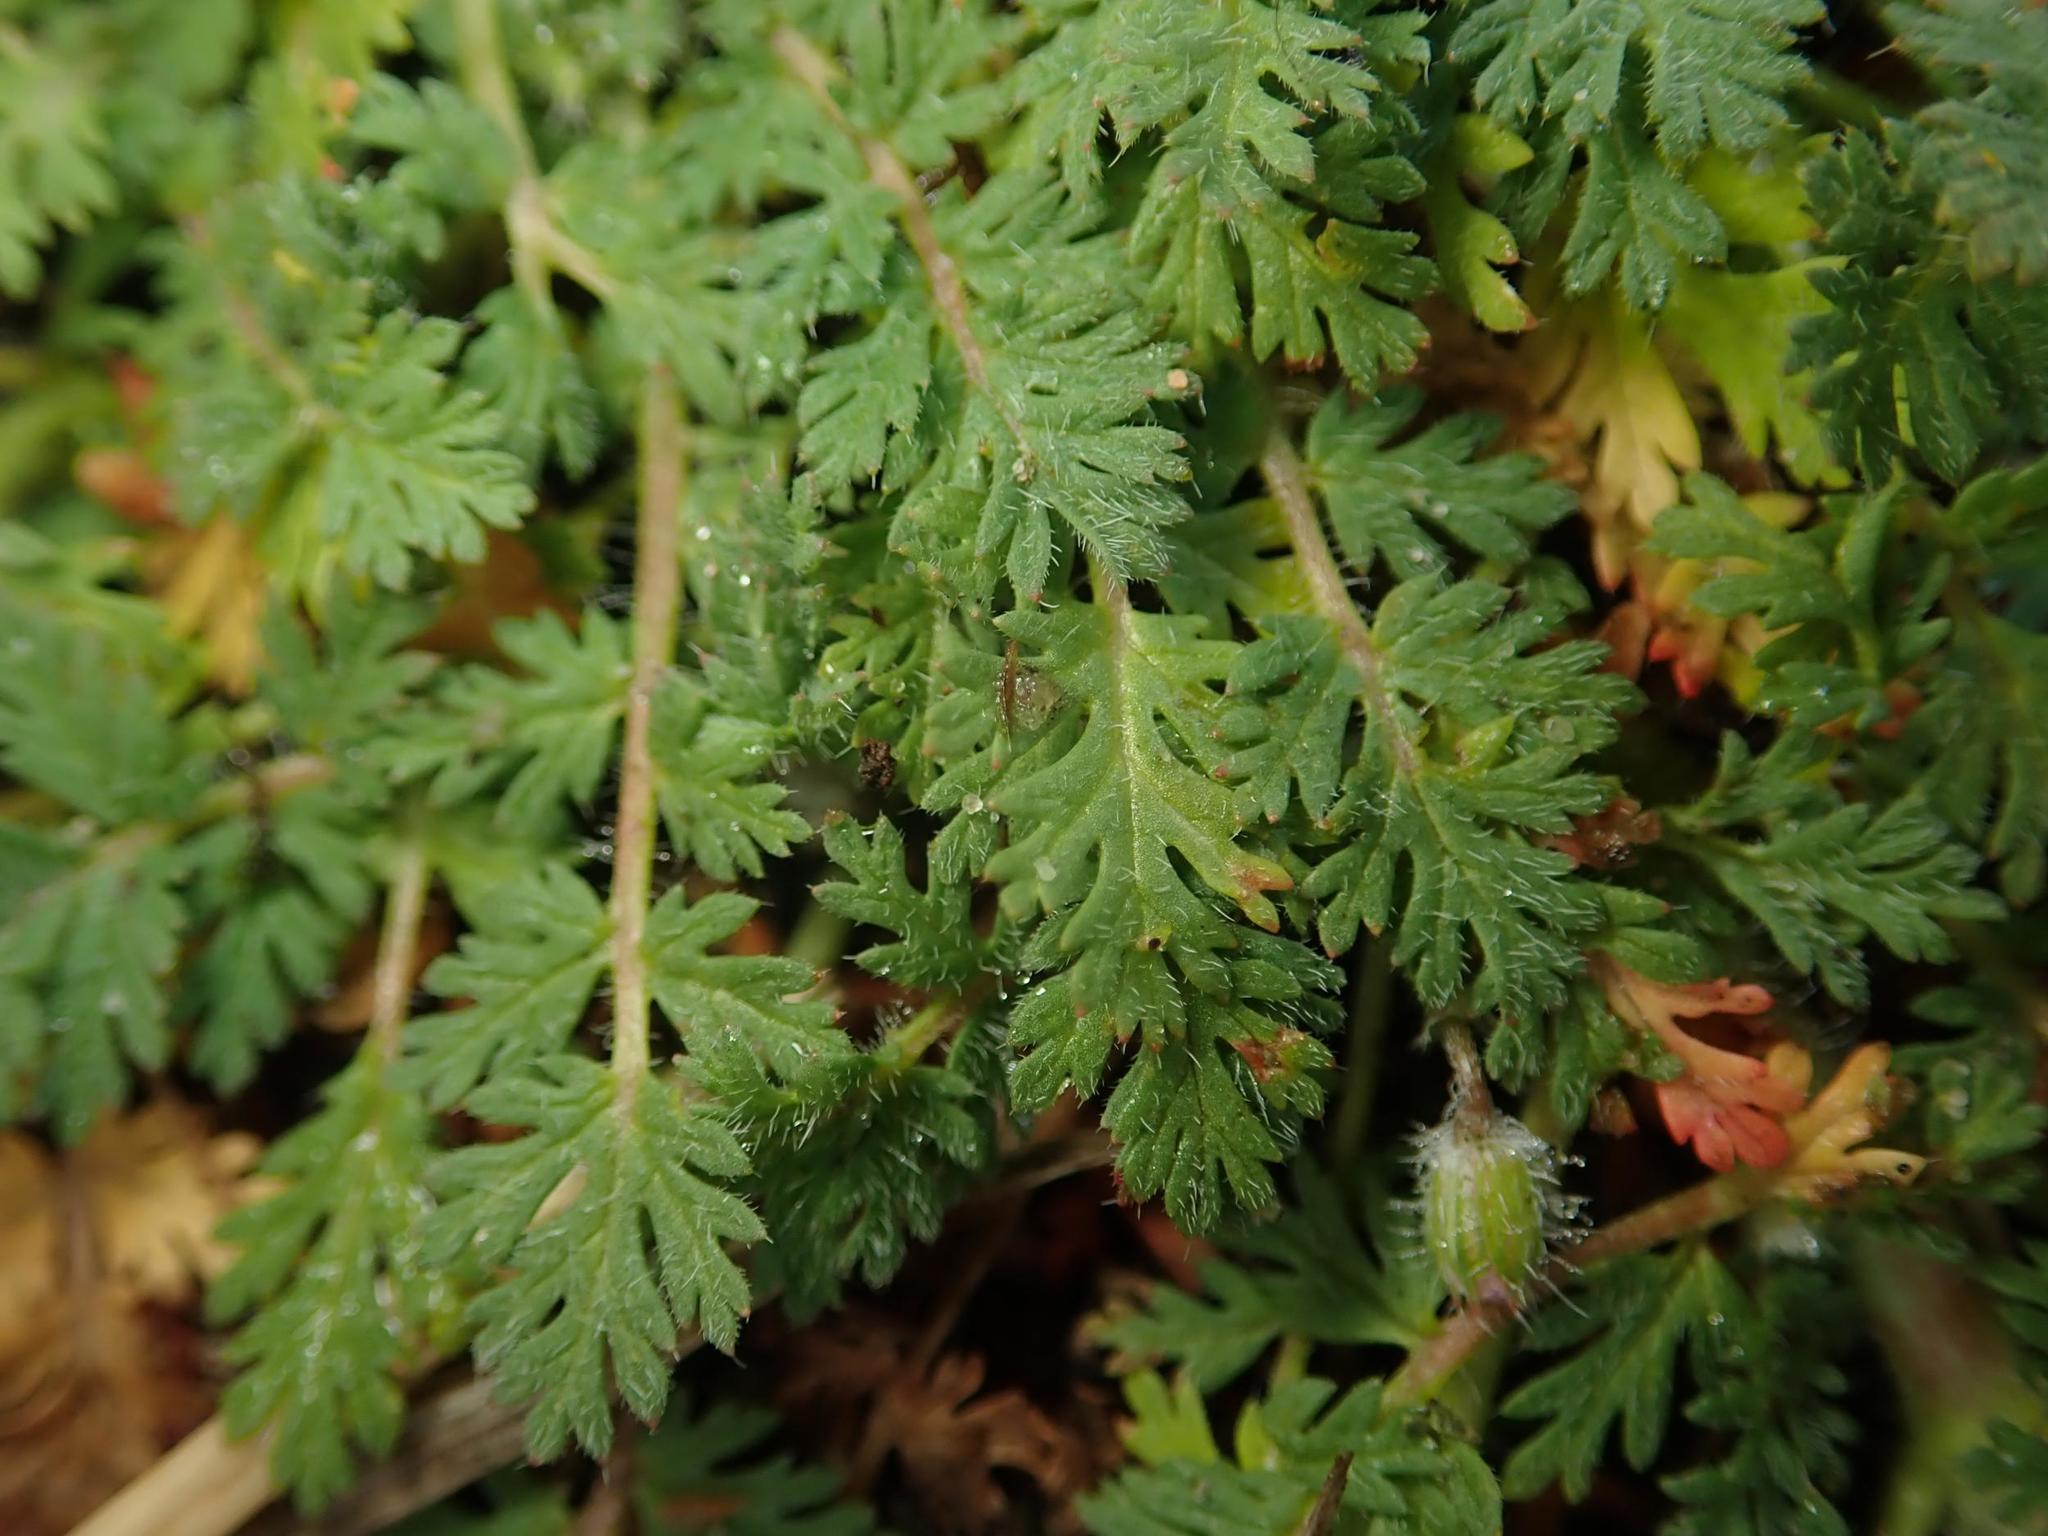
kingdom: Plantae
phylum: Tracheophyta
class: Magnoliopsida
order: Geraniales
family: Geraniaceae
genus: Erodium
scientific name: Erodium cicutarium
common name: Common stork's-bill
